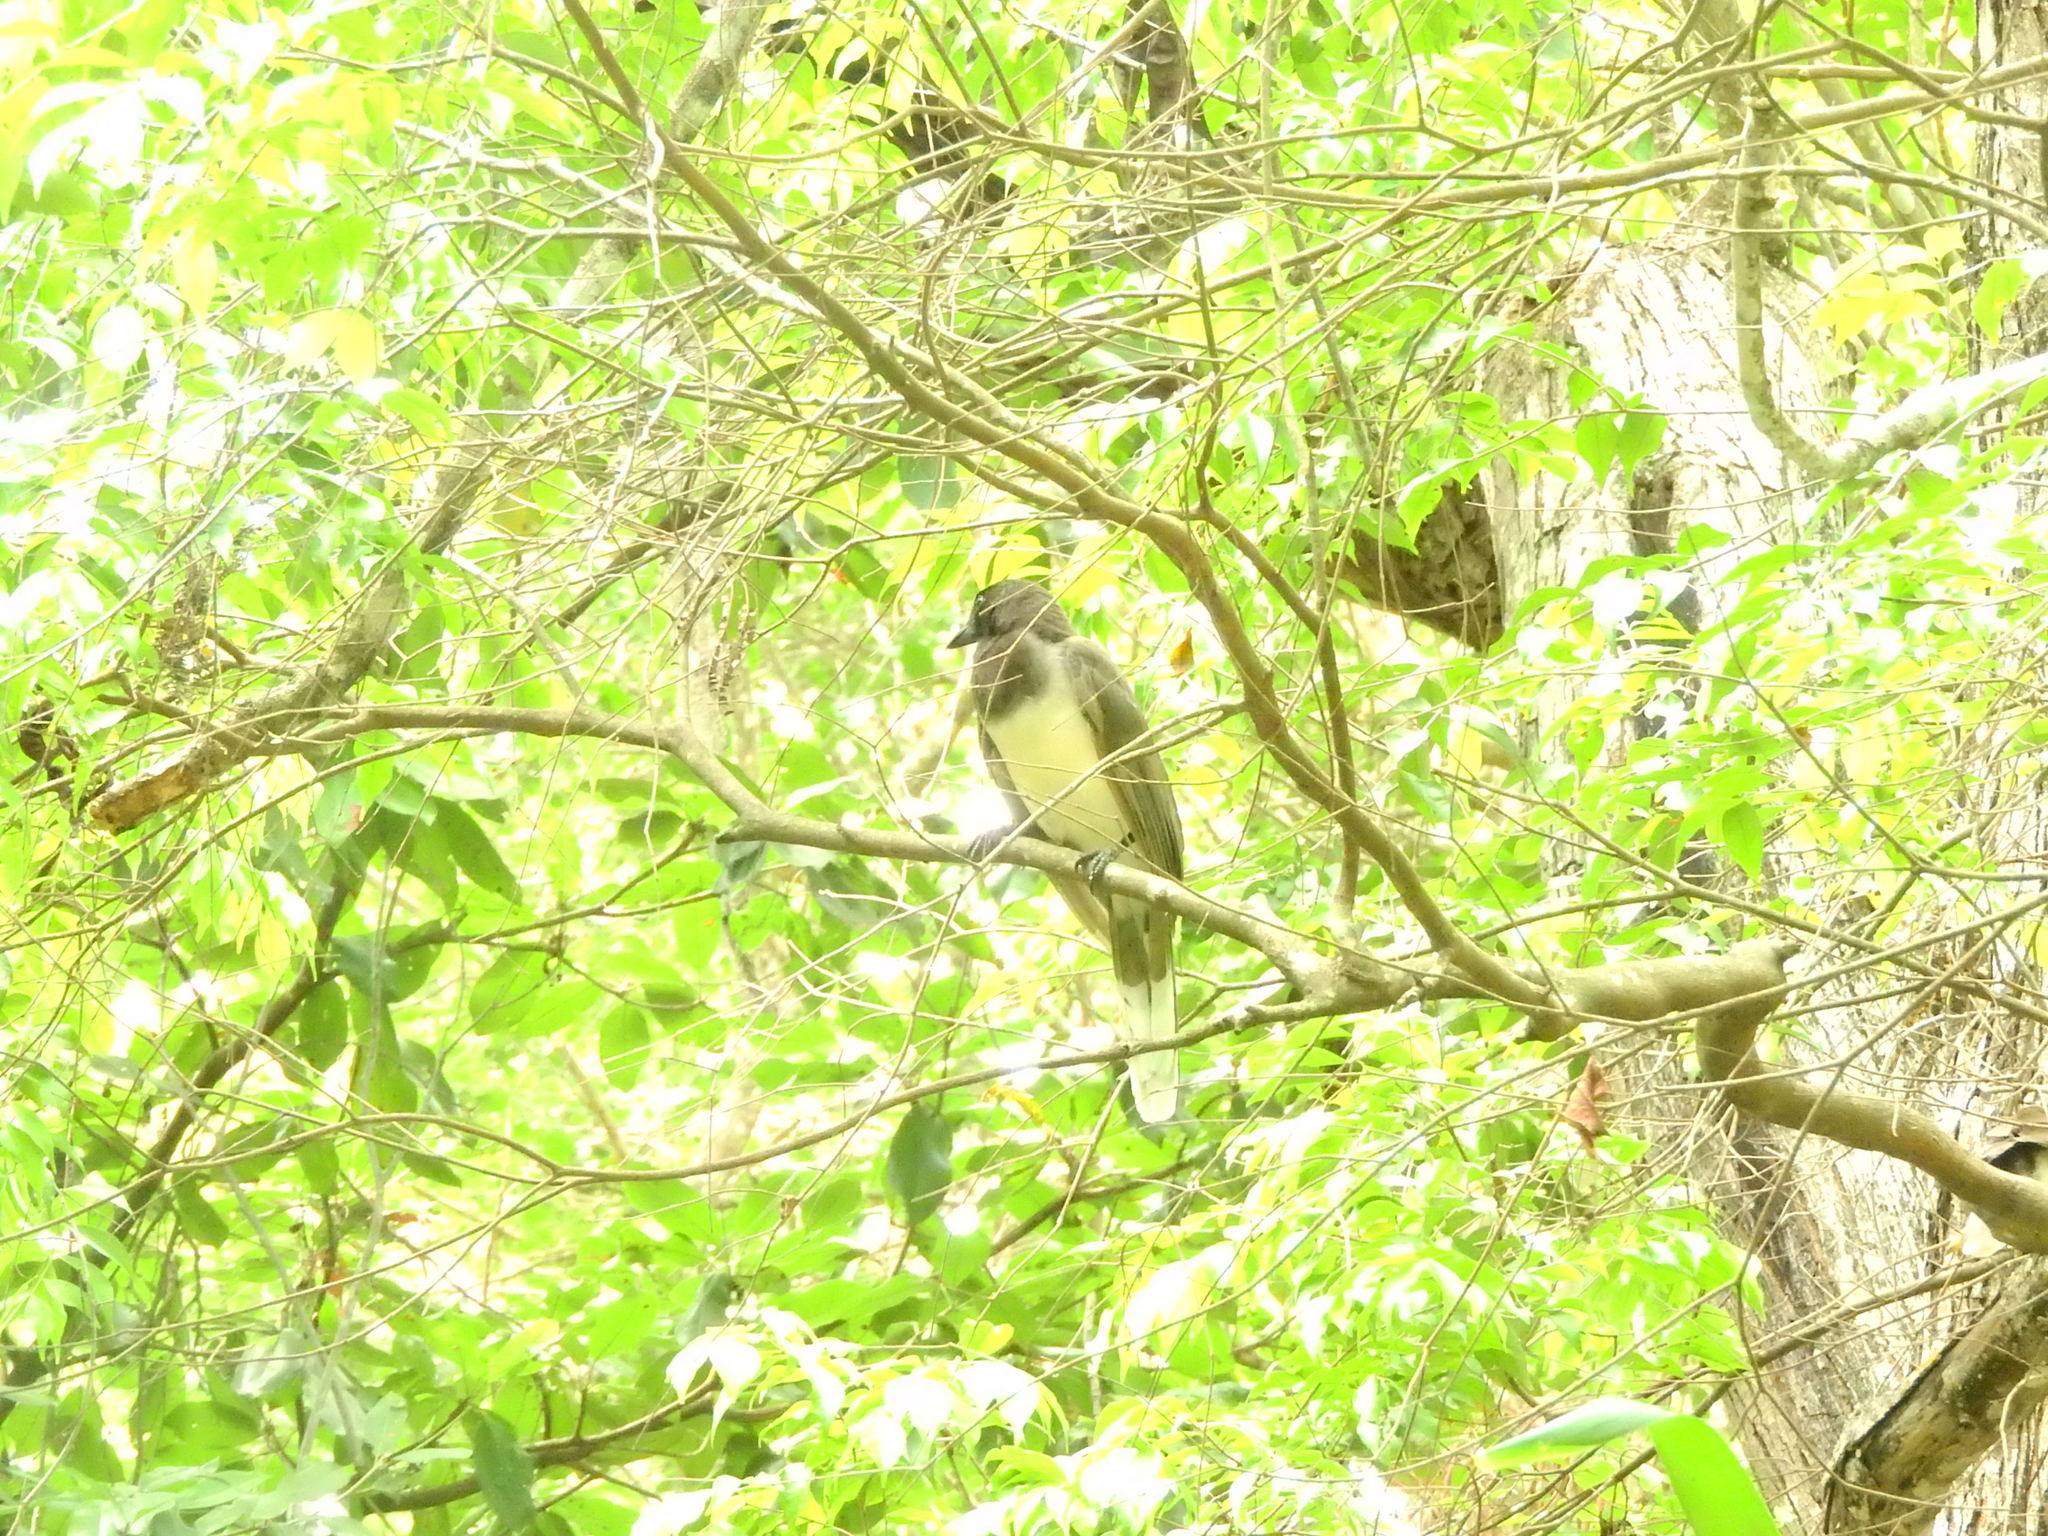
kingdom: Animalia
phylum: Chordata
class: Aves
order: Passeriformes
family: Corvidae
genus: Psilorhinus
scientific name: Psilorhinus morio
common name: Brown jay
